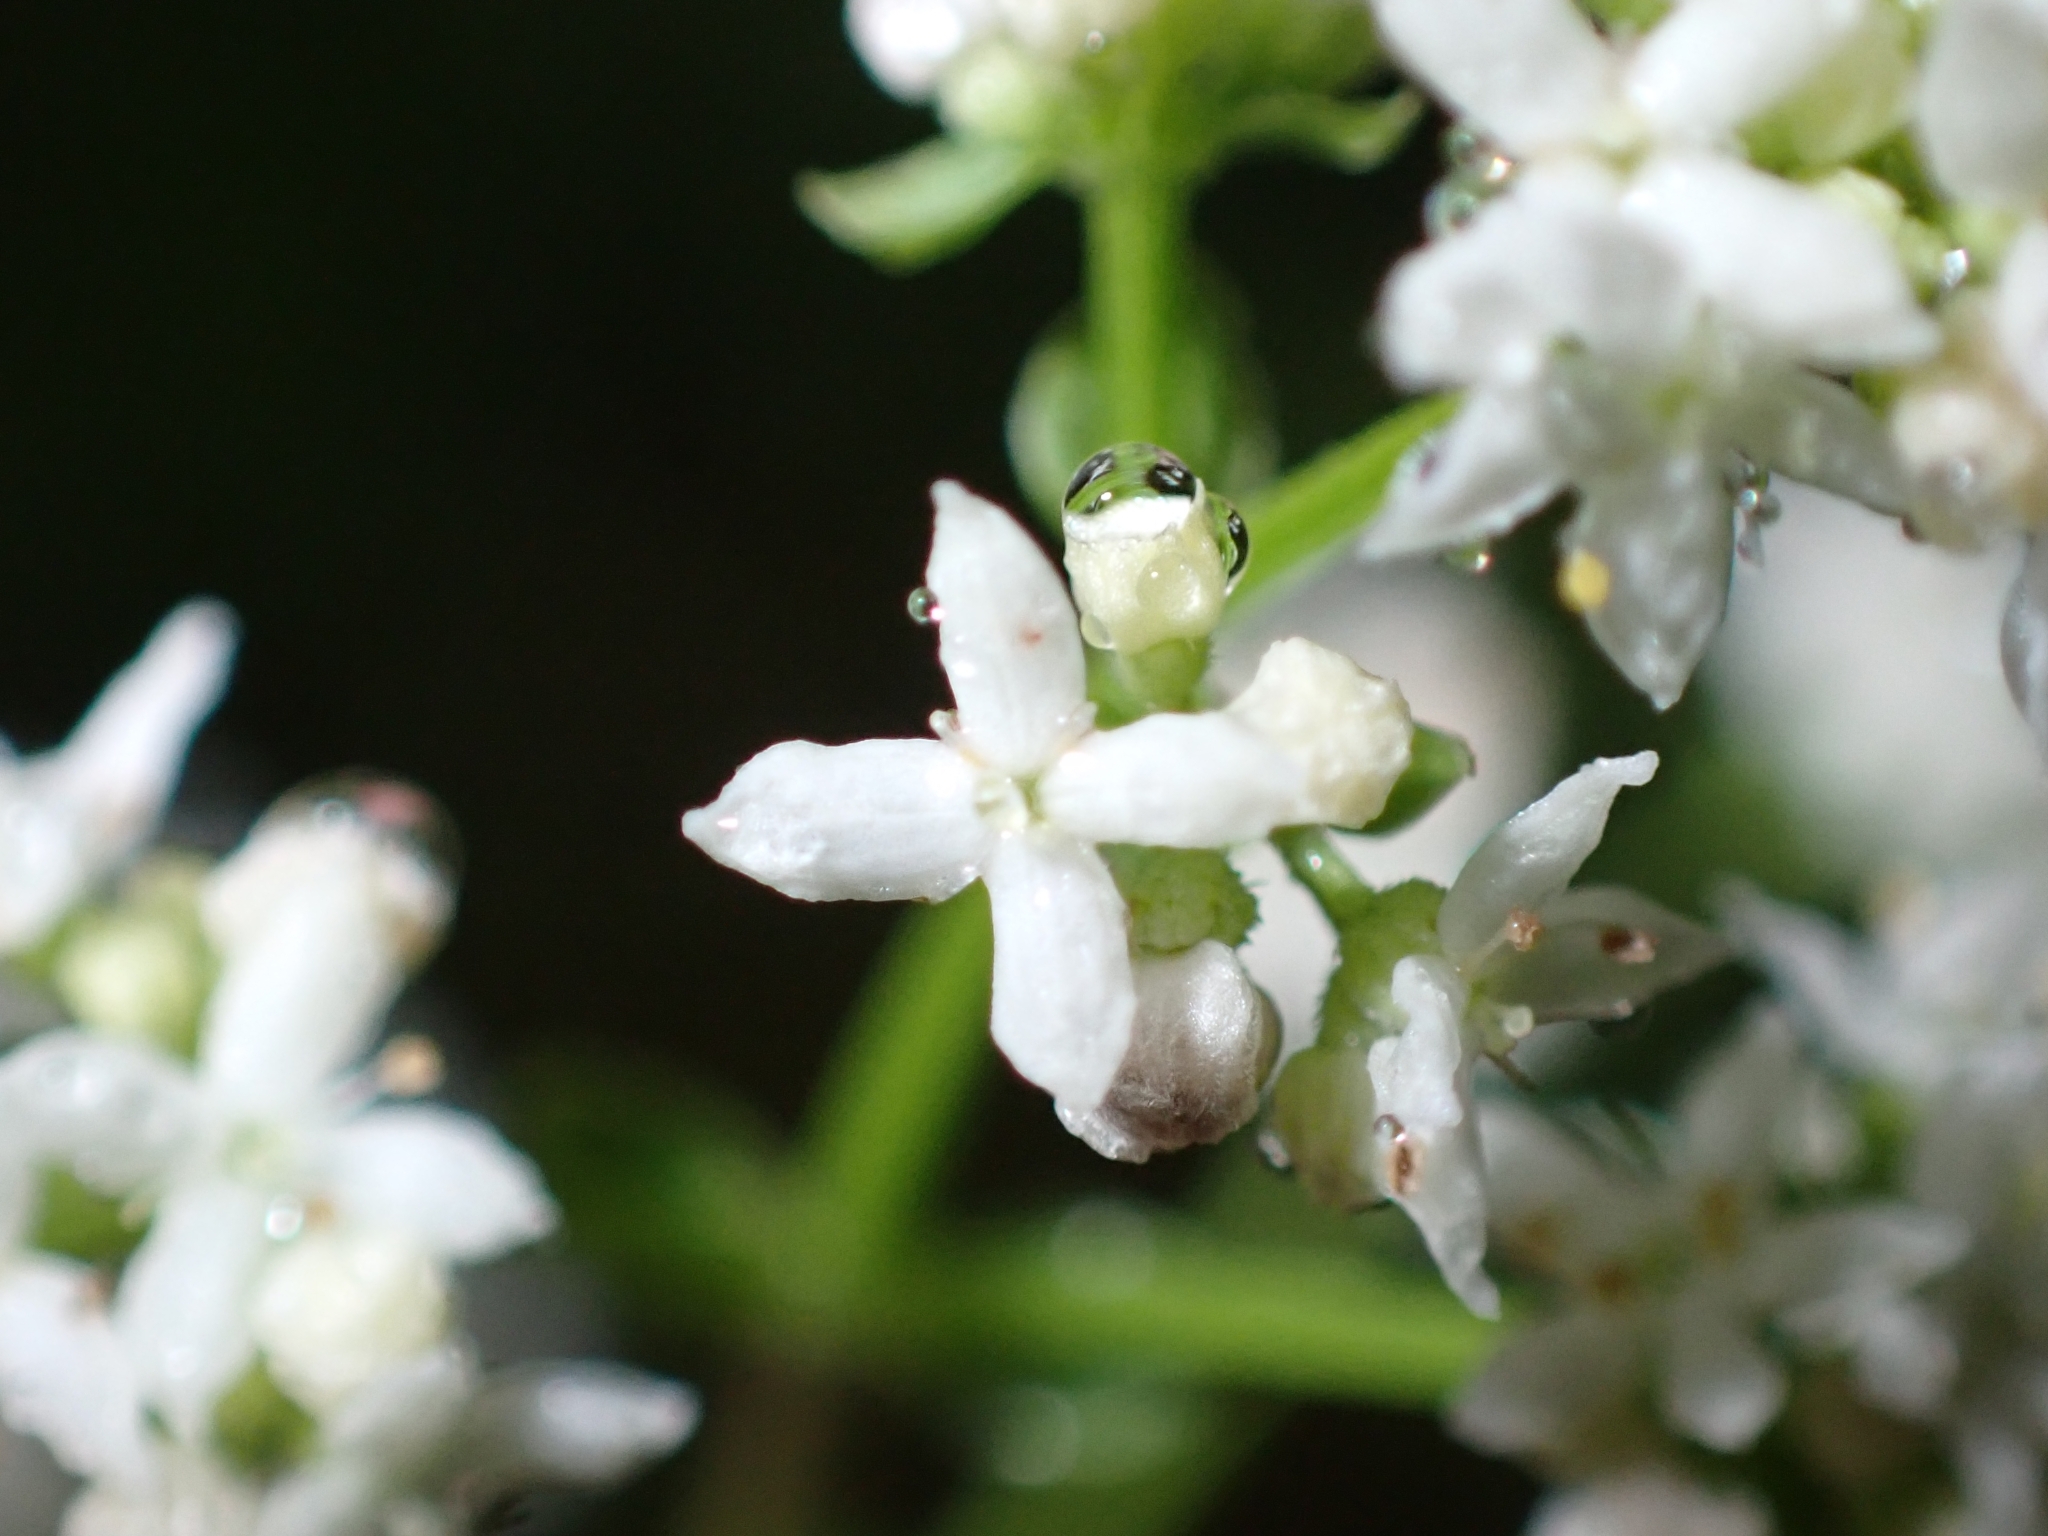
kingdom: Plantae
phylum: Tracheophyta
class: Magnoliopsida
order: Gentianales
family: Rubiaceae
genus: Galium
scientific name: Galium boreale
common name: Northern bedstraw
